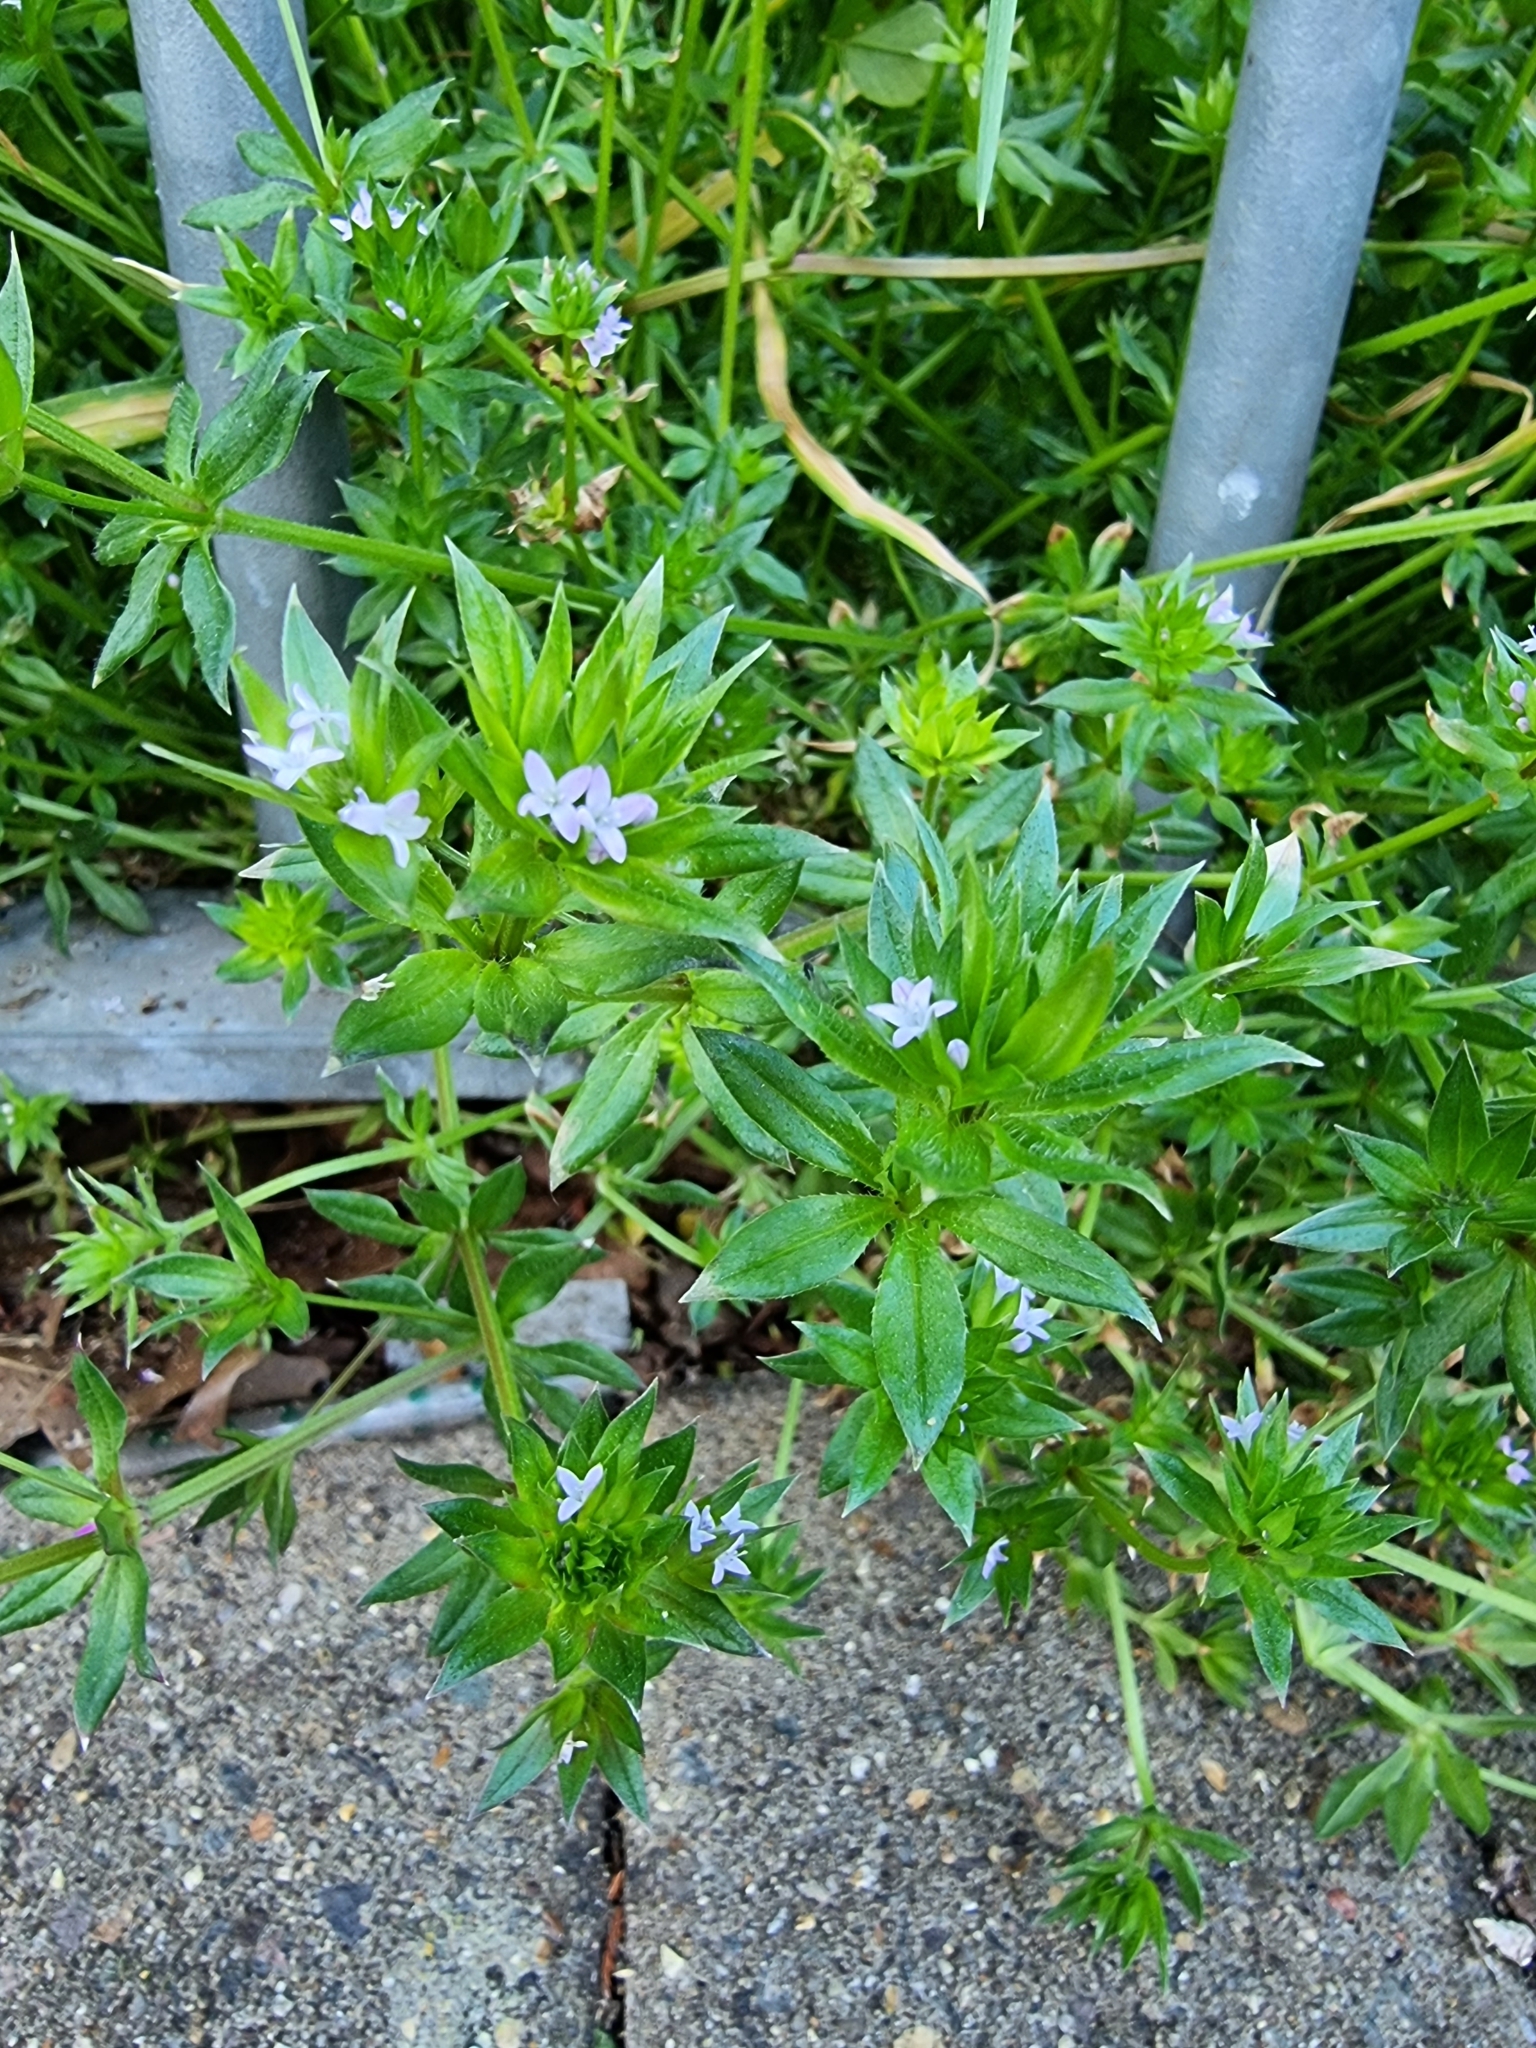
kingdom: Plantae
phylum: Tracheophyta
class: Magnoliopsida
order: Gentianales
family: Rubiaceae
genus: Sherardia
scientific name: Sherardia arvensis
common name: Field madder
